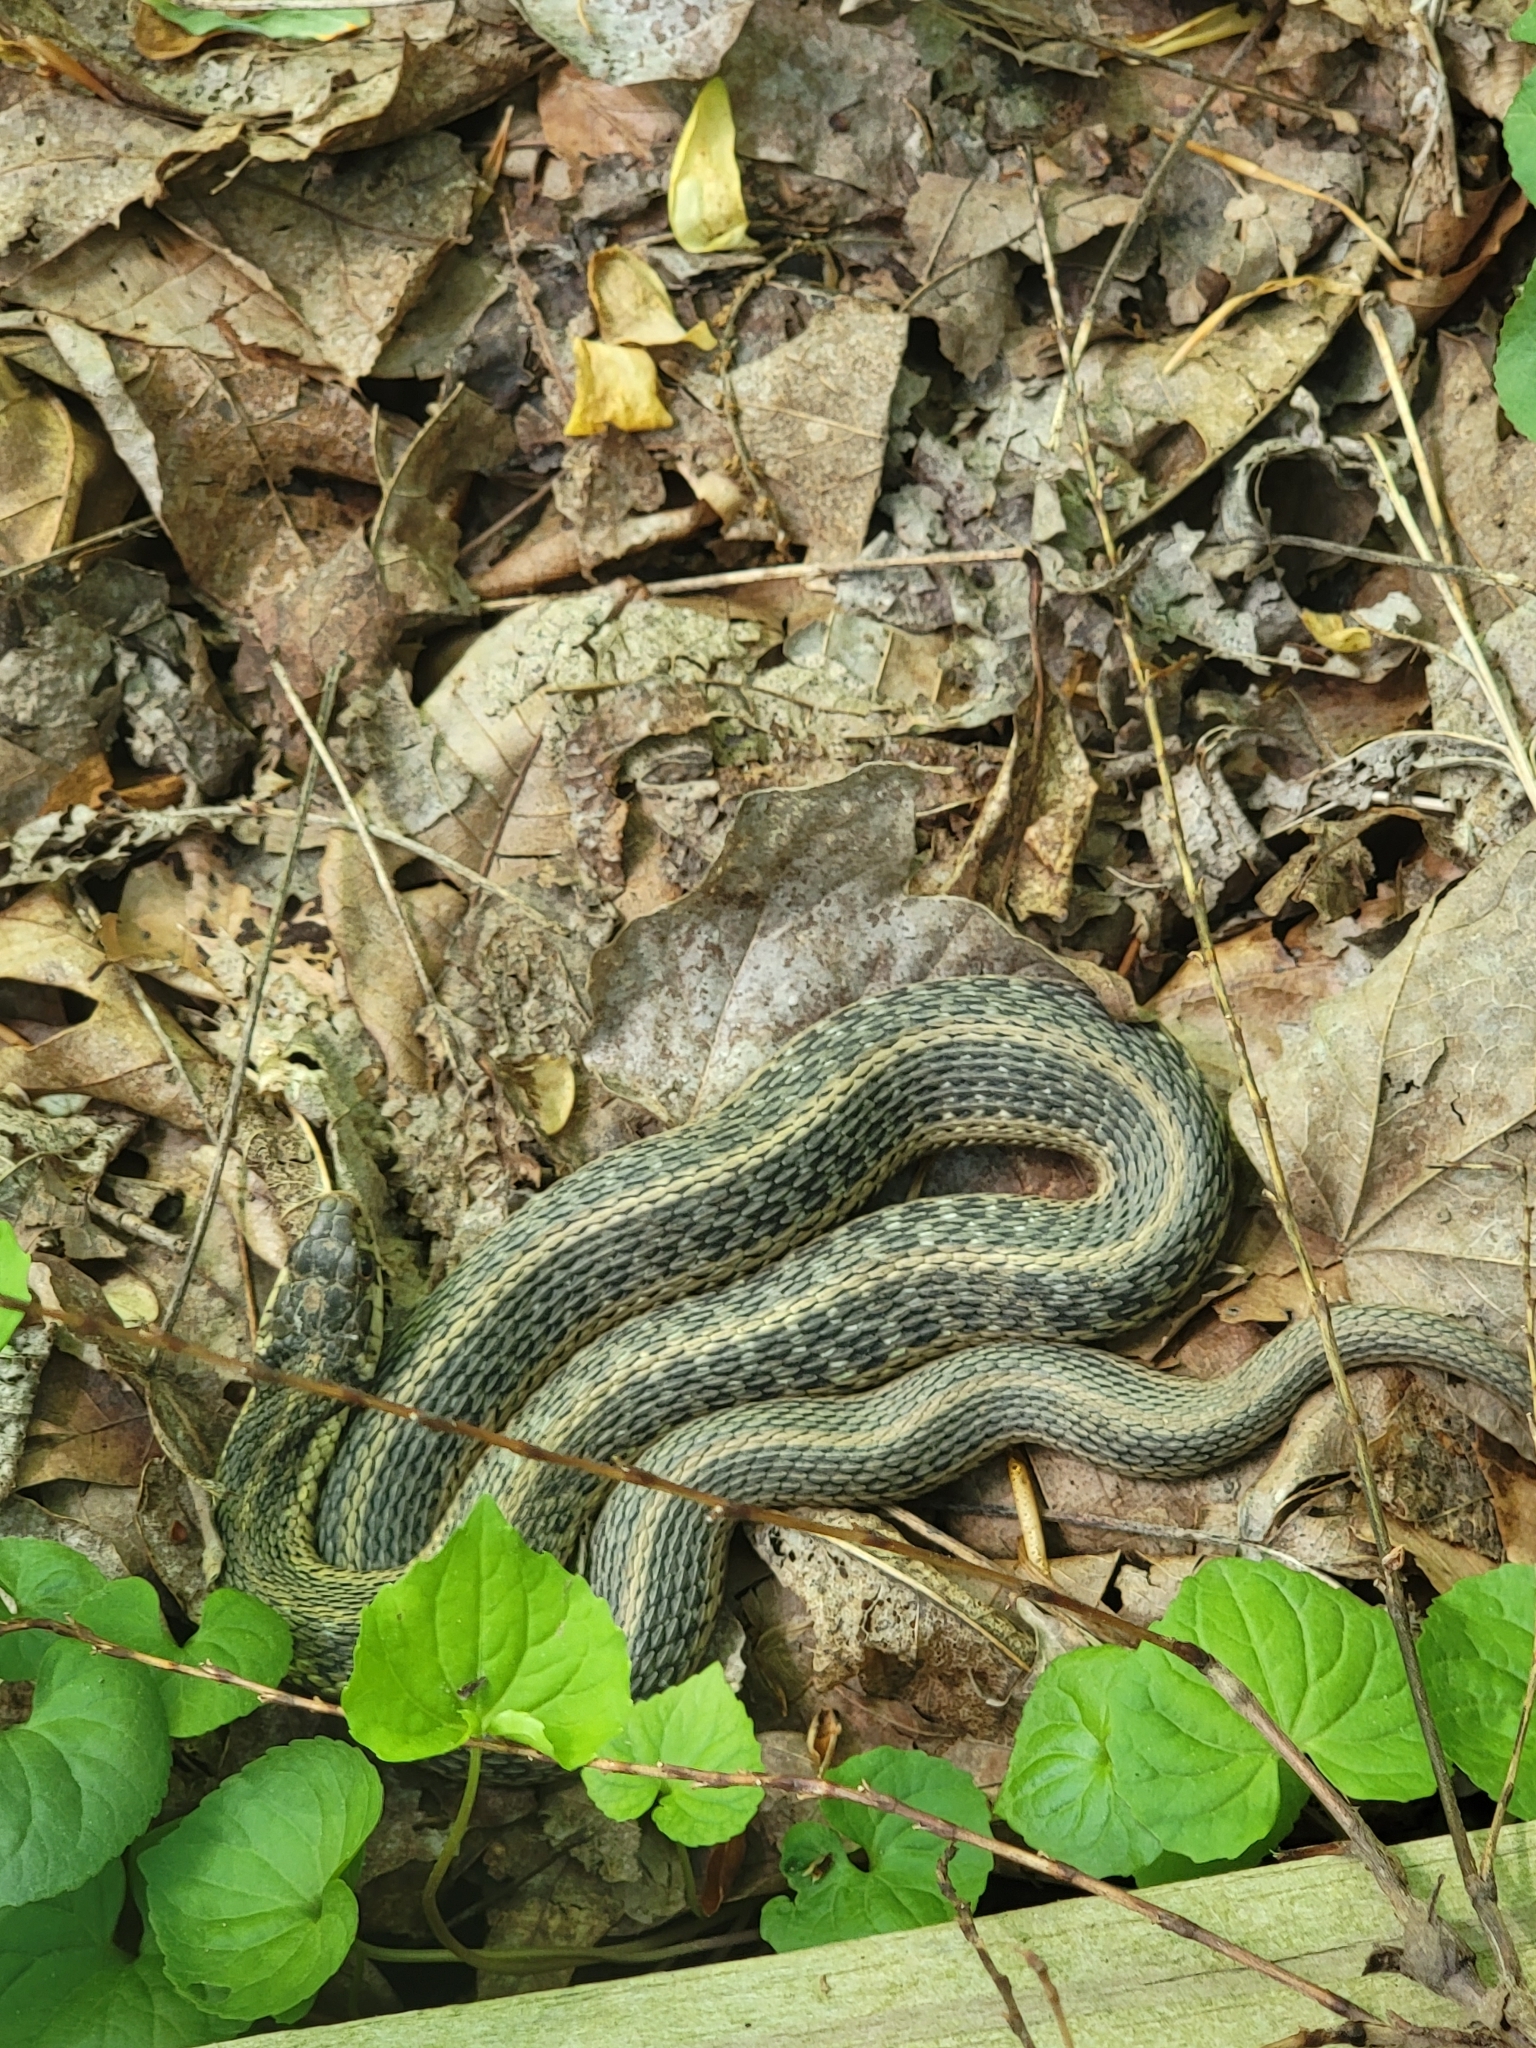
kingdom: Animalia
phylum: Chordata
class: Squamata
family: Colubridae
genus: Thamnophis
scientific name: Thamnophis sirtalis
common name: Common garter snake
